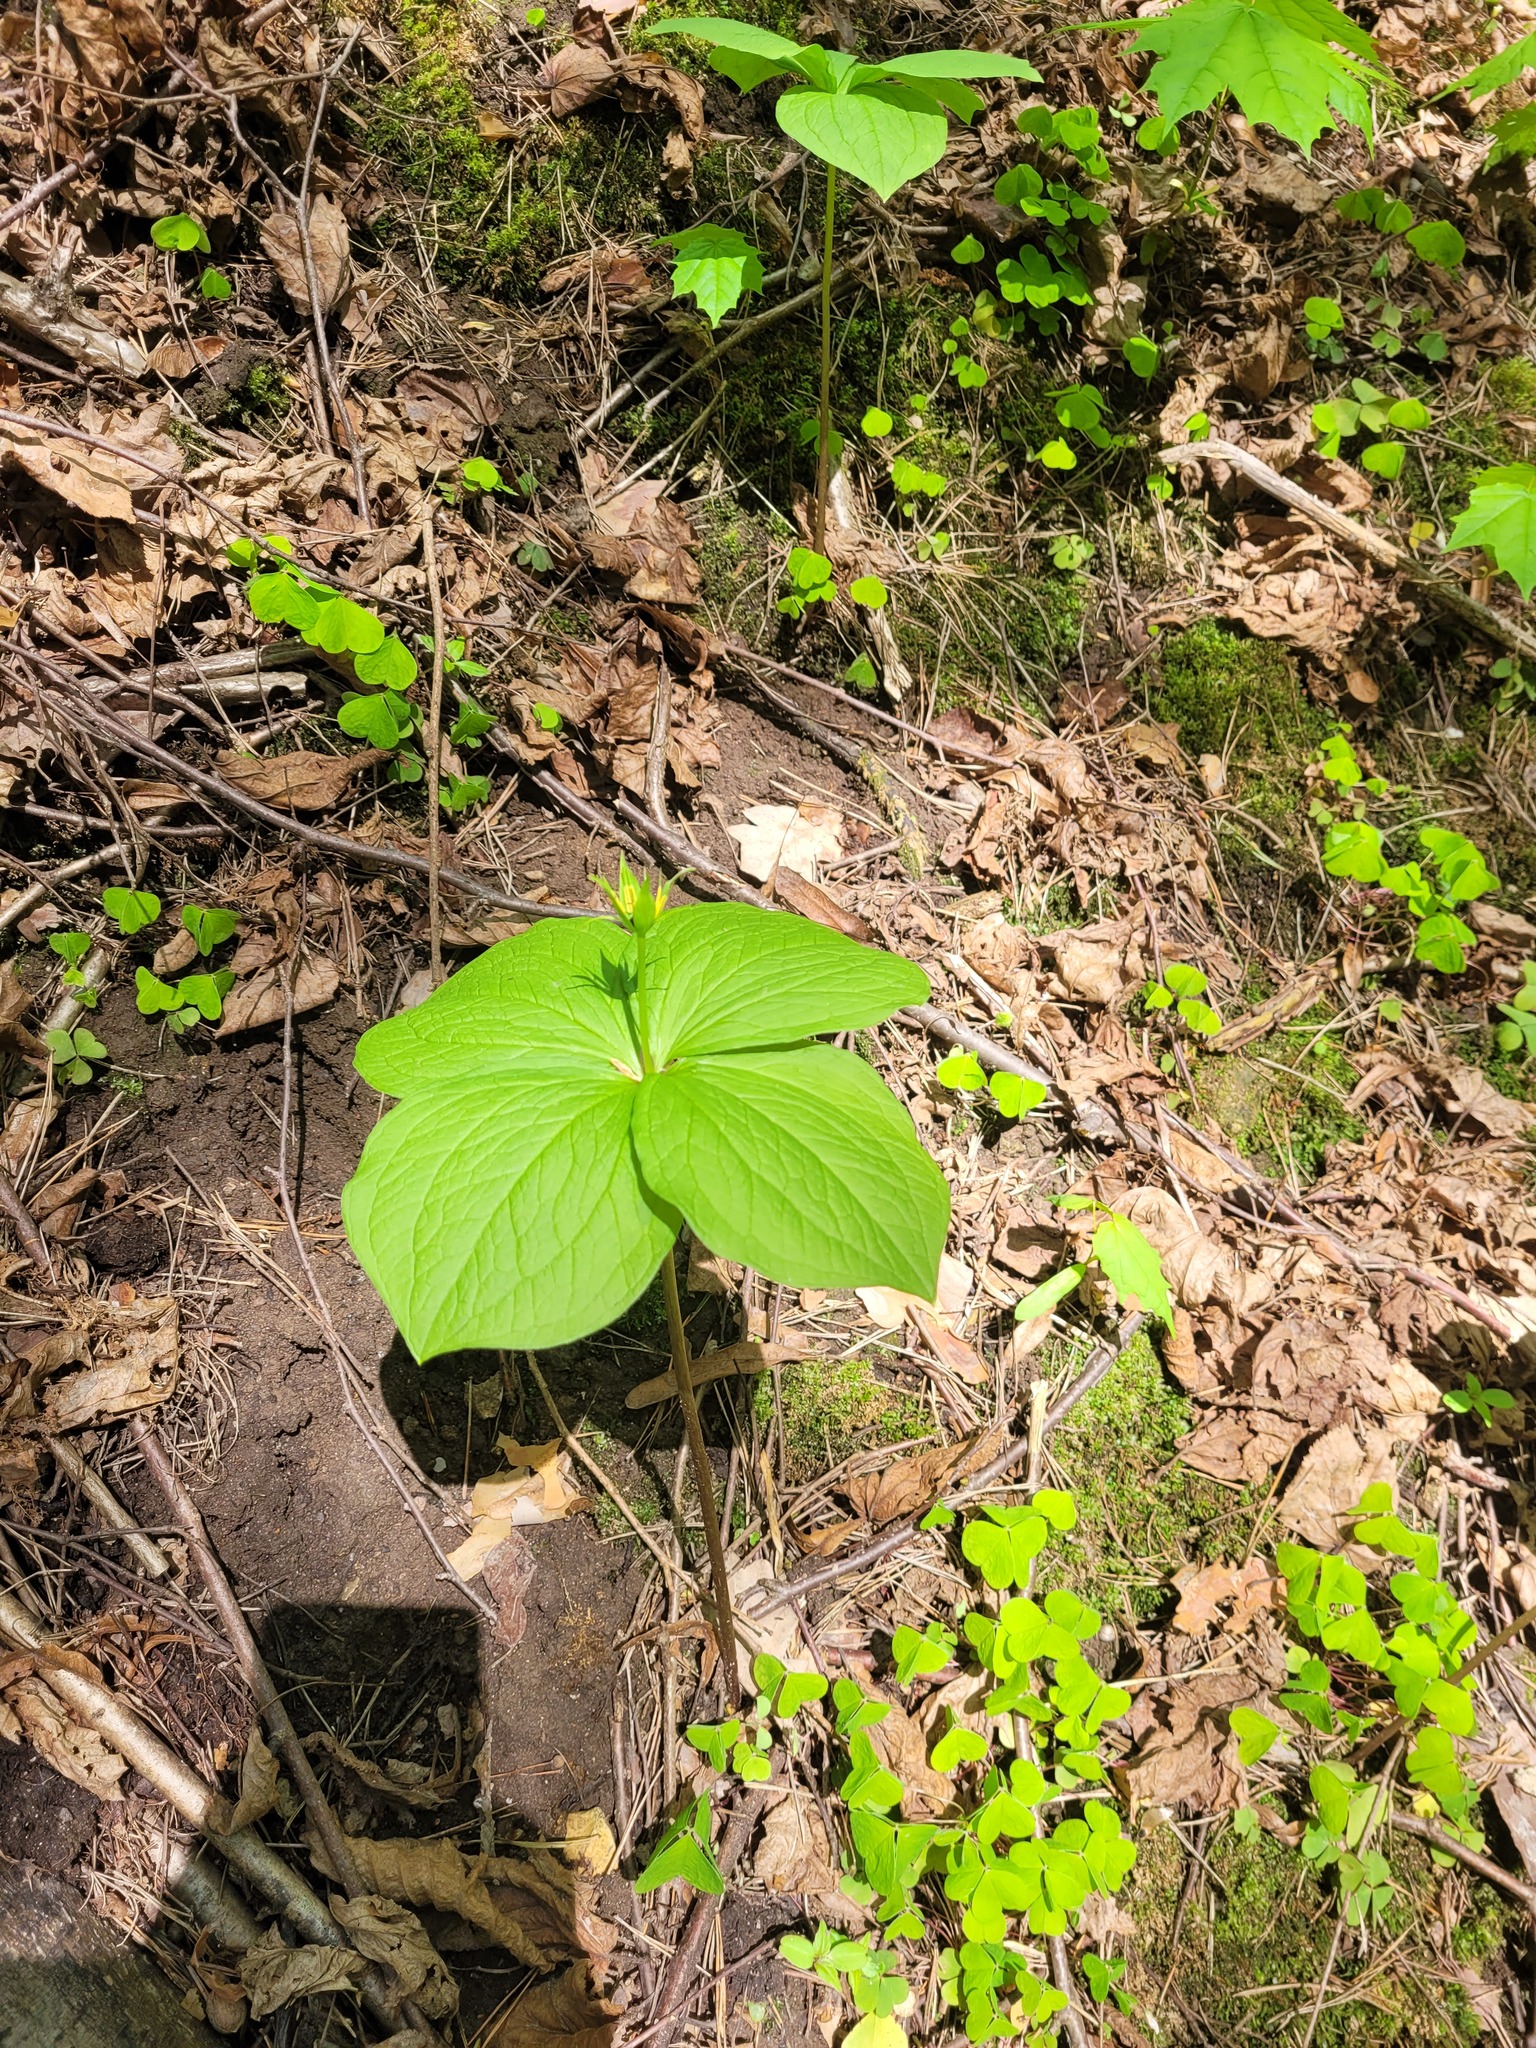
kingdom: Plantae
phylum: Tracheophyta
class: Liliopsida
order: Liliales
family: Melanthiaceae
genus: Paris
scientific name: Paris quadrifolia
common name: Herb-paris
